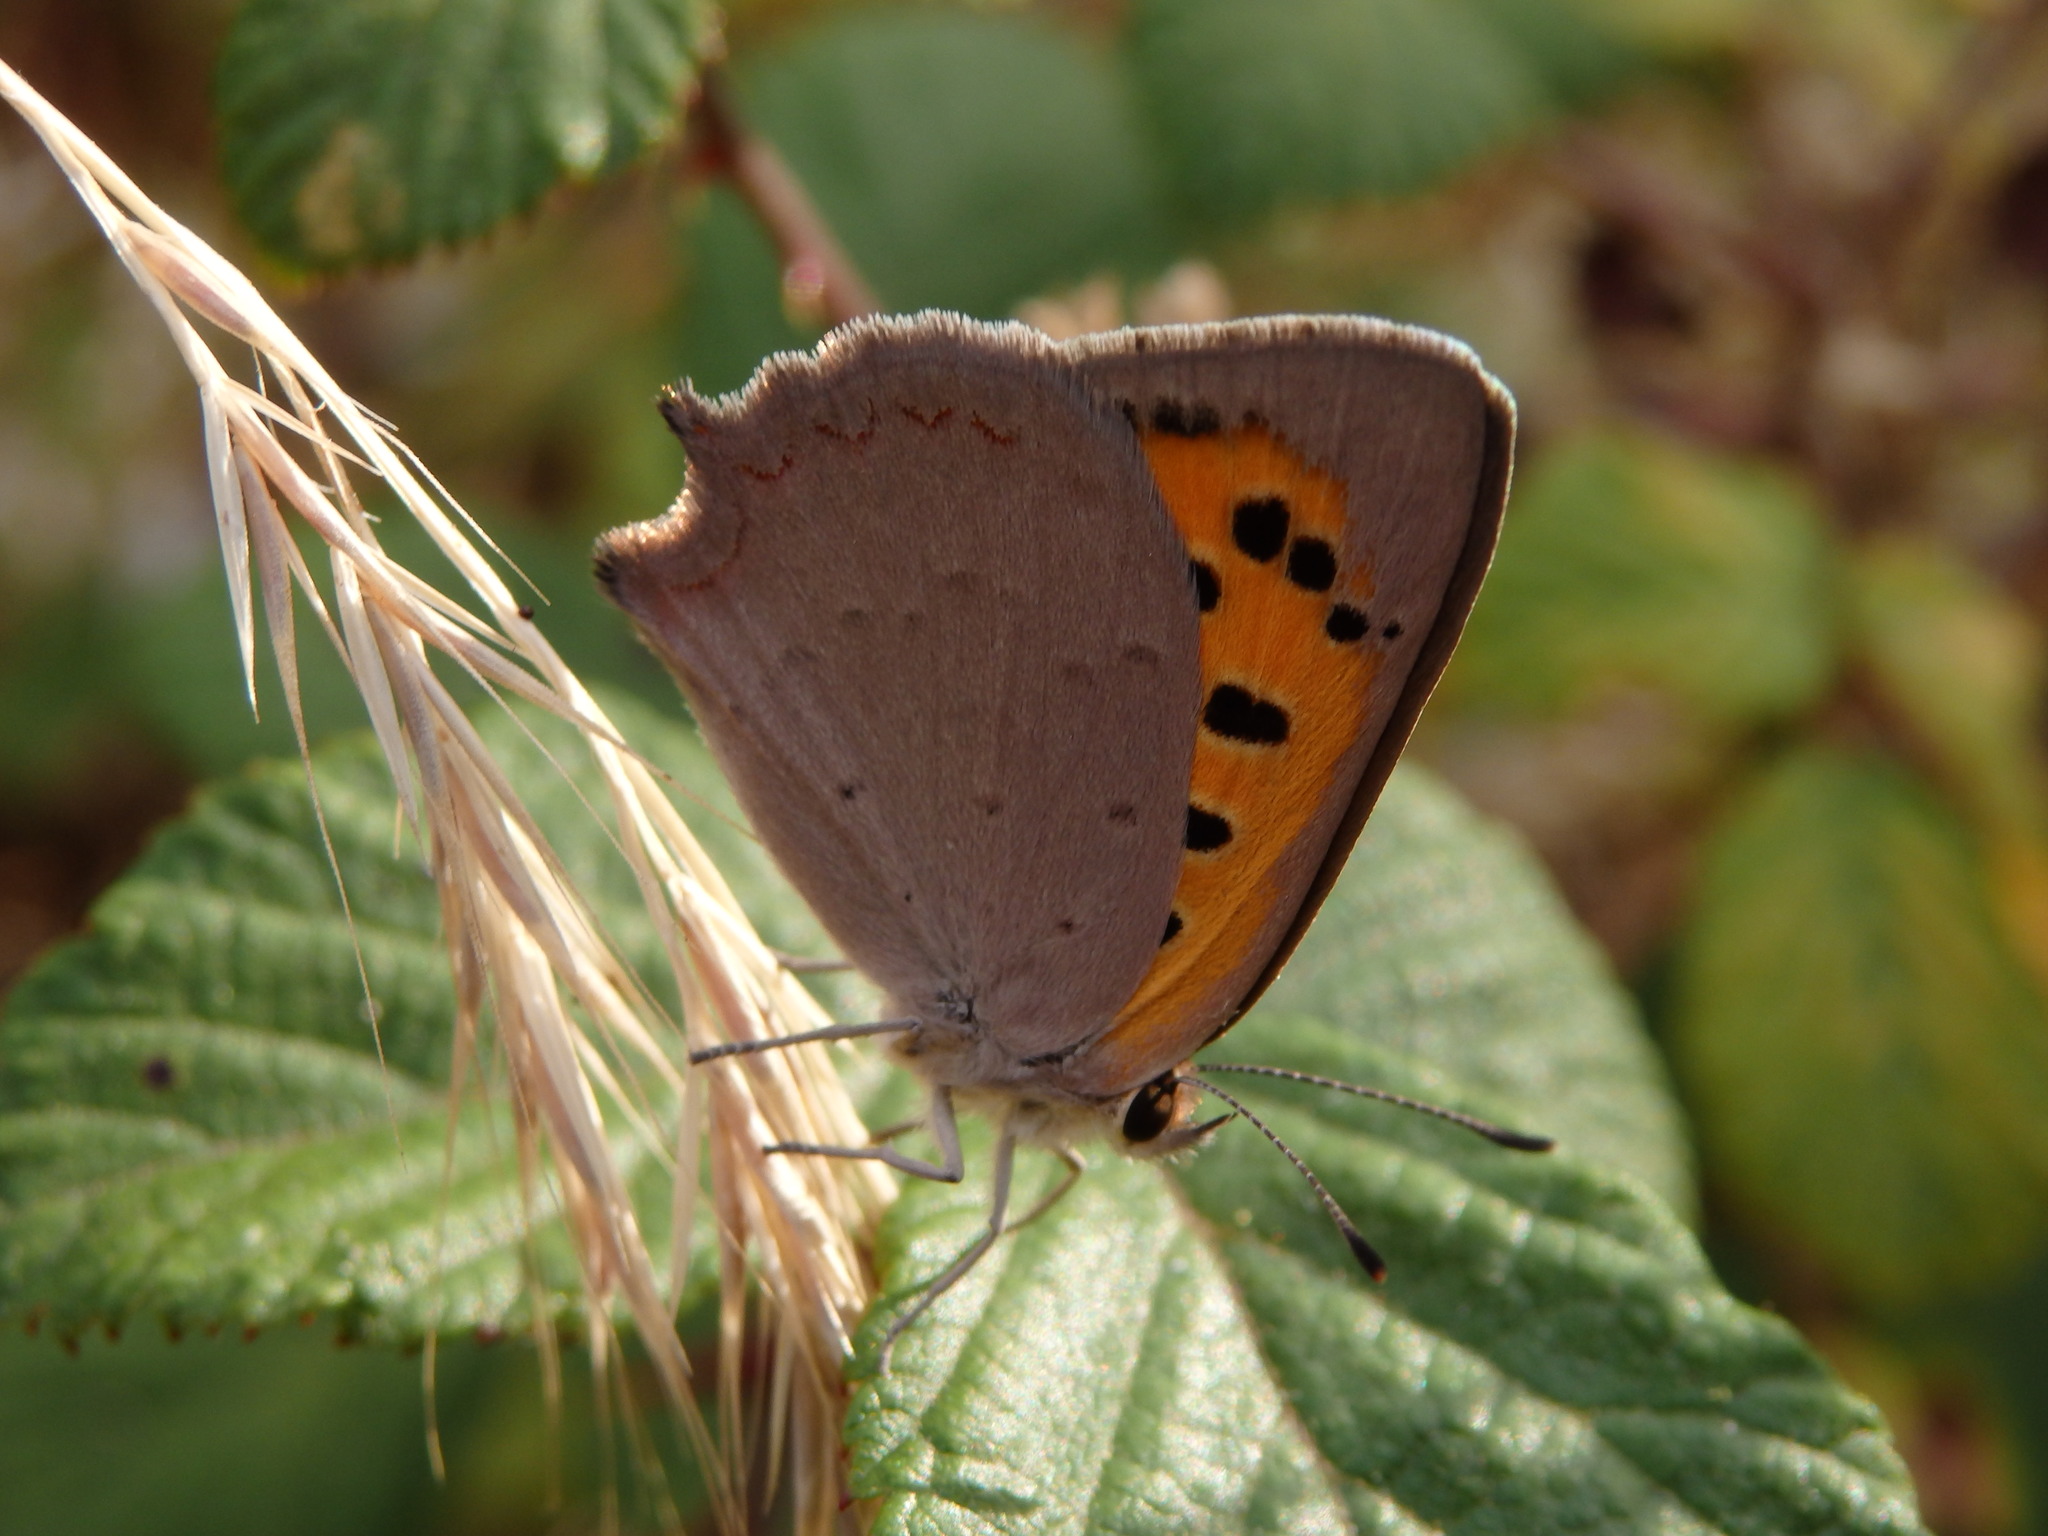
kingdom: Animalia
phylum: Arthropoda
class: Insecta
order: Lepidoptera
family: Lycaenidae
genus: Lycaena
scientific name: Lycaena phlaeas
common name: Small copper
